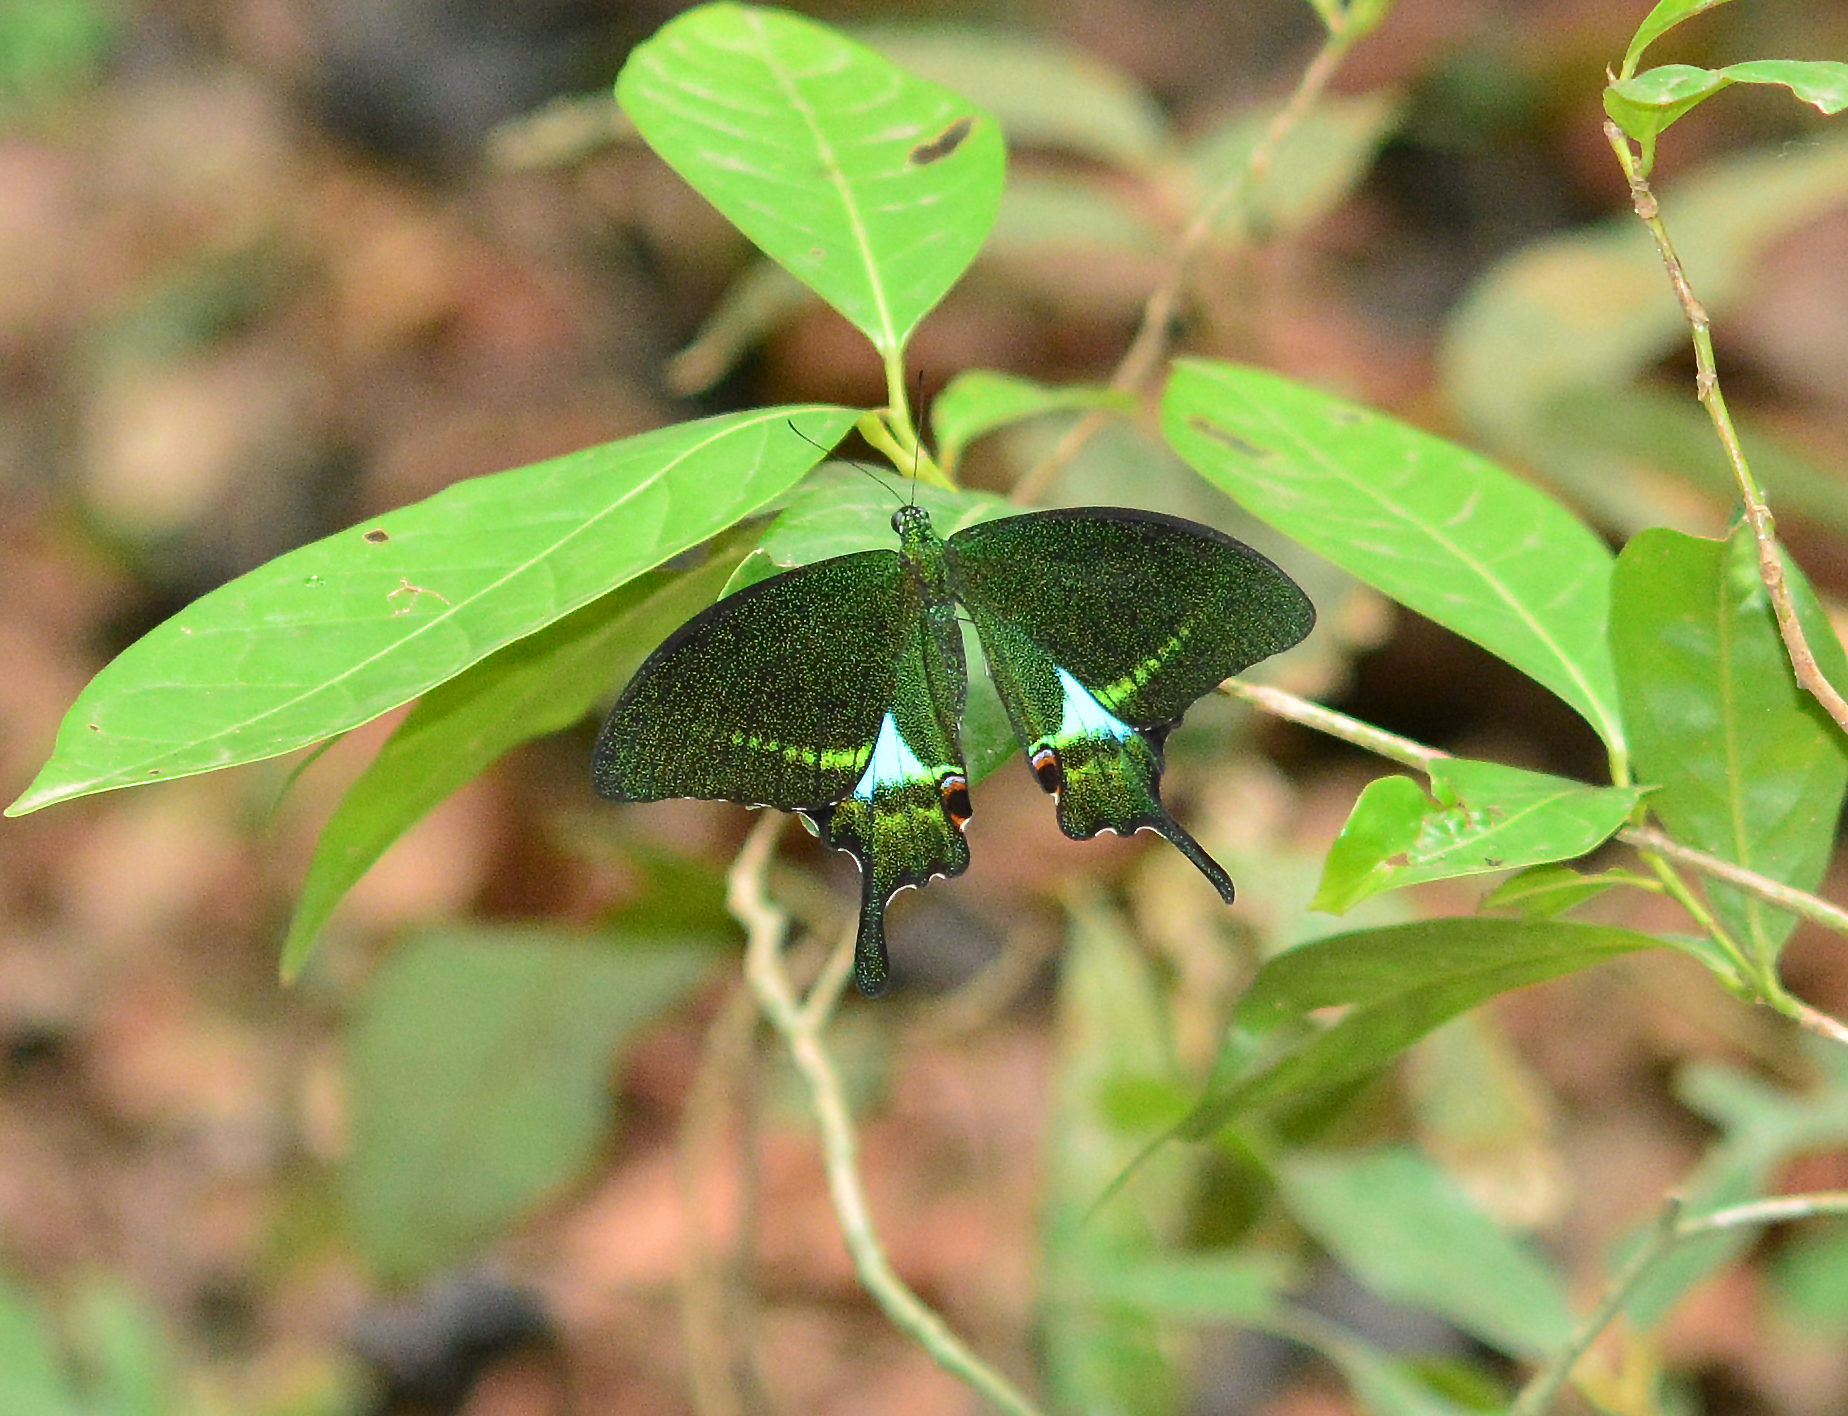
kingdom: Animalia
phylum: Arthropoda
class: Insecta
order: Lepidoptera
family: Papilionidae
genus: Papilio
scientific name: Papilio paris
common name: Paris peacock
